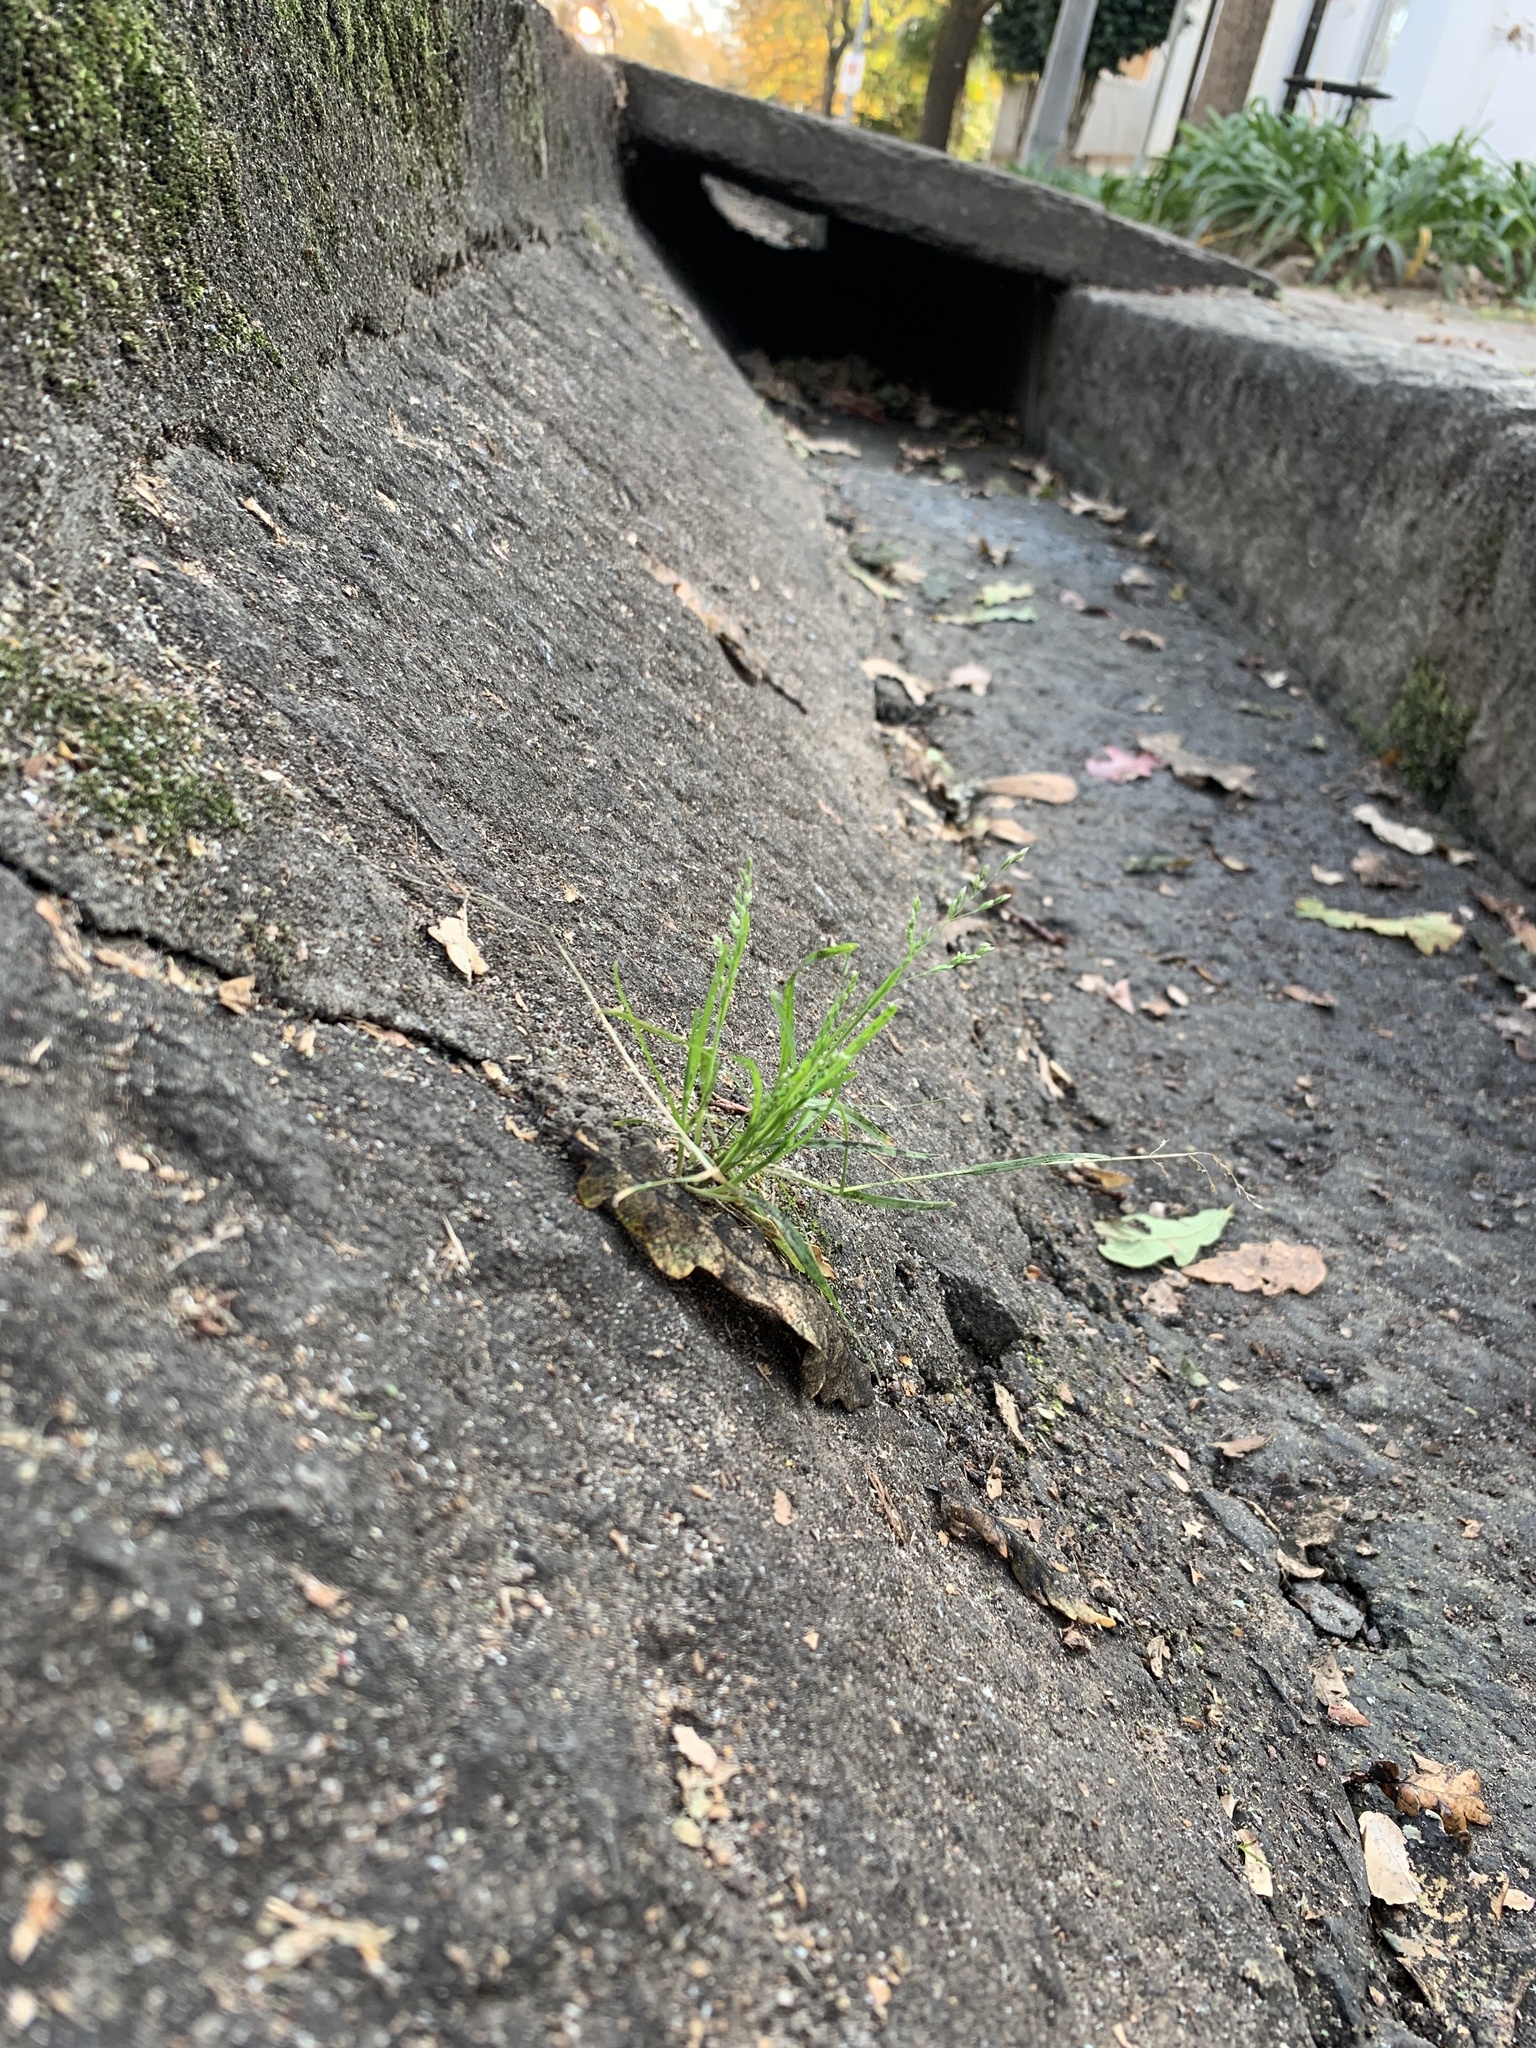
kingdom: Plantae
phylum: Tracheophyta
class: Liliopsida
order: Poales
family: Poaceae
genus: Poa
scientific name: Poa annua
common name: Annual bluegrass
